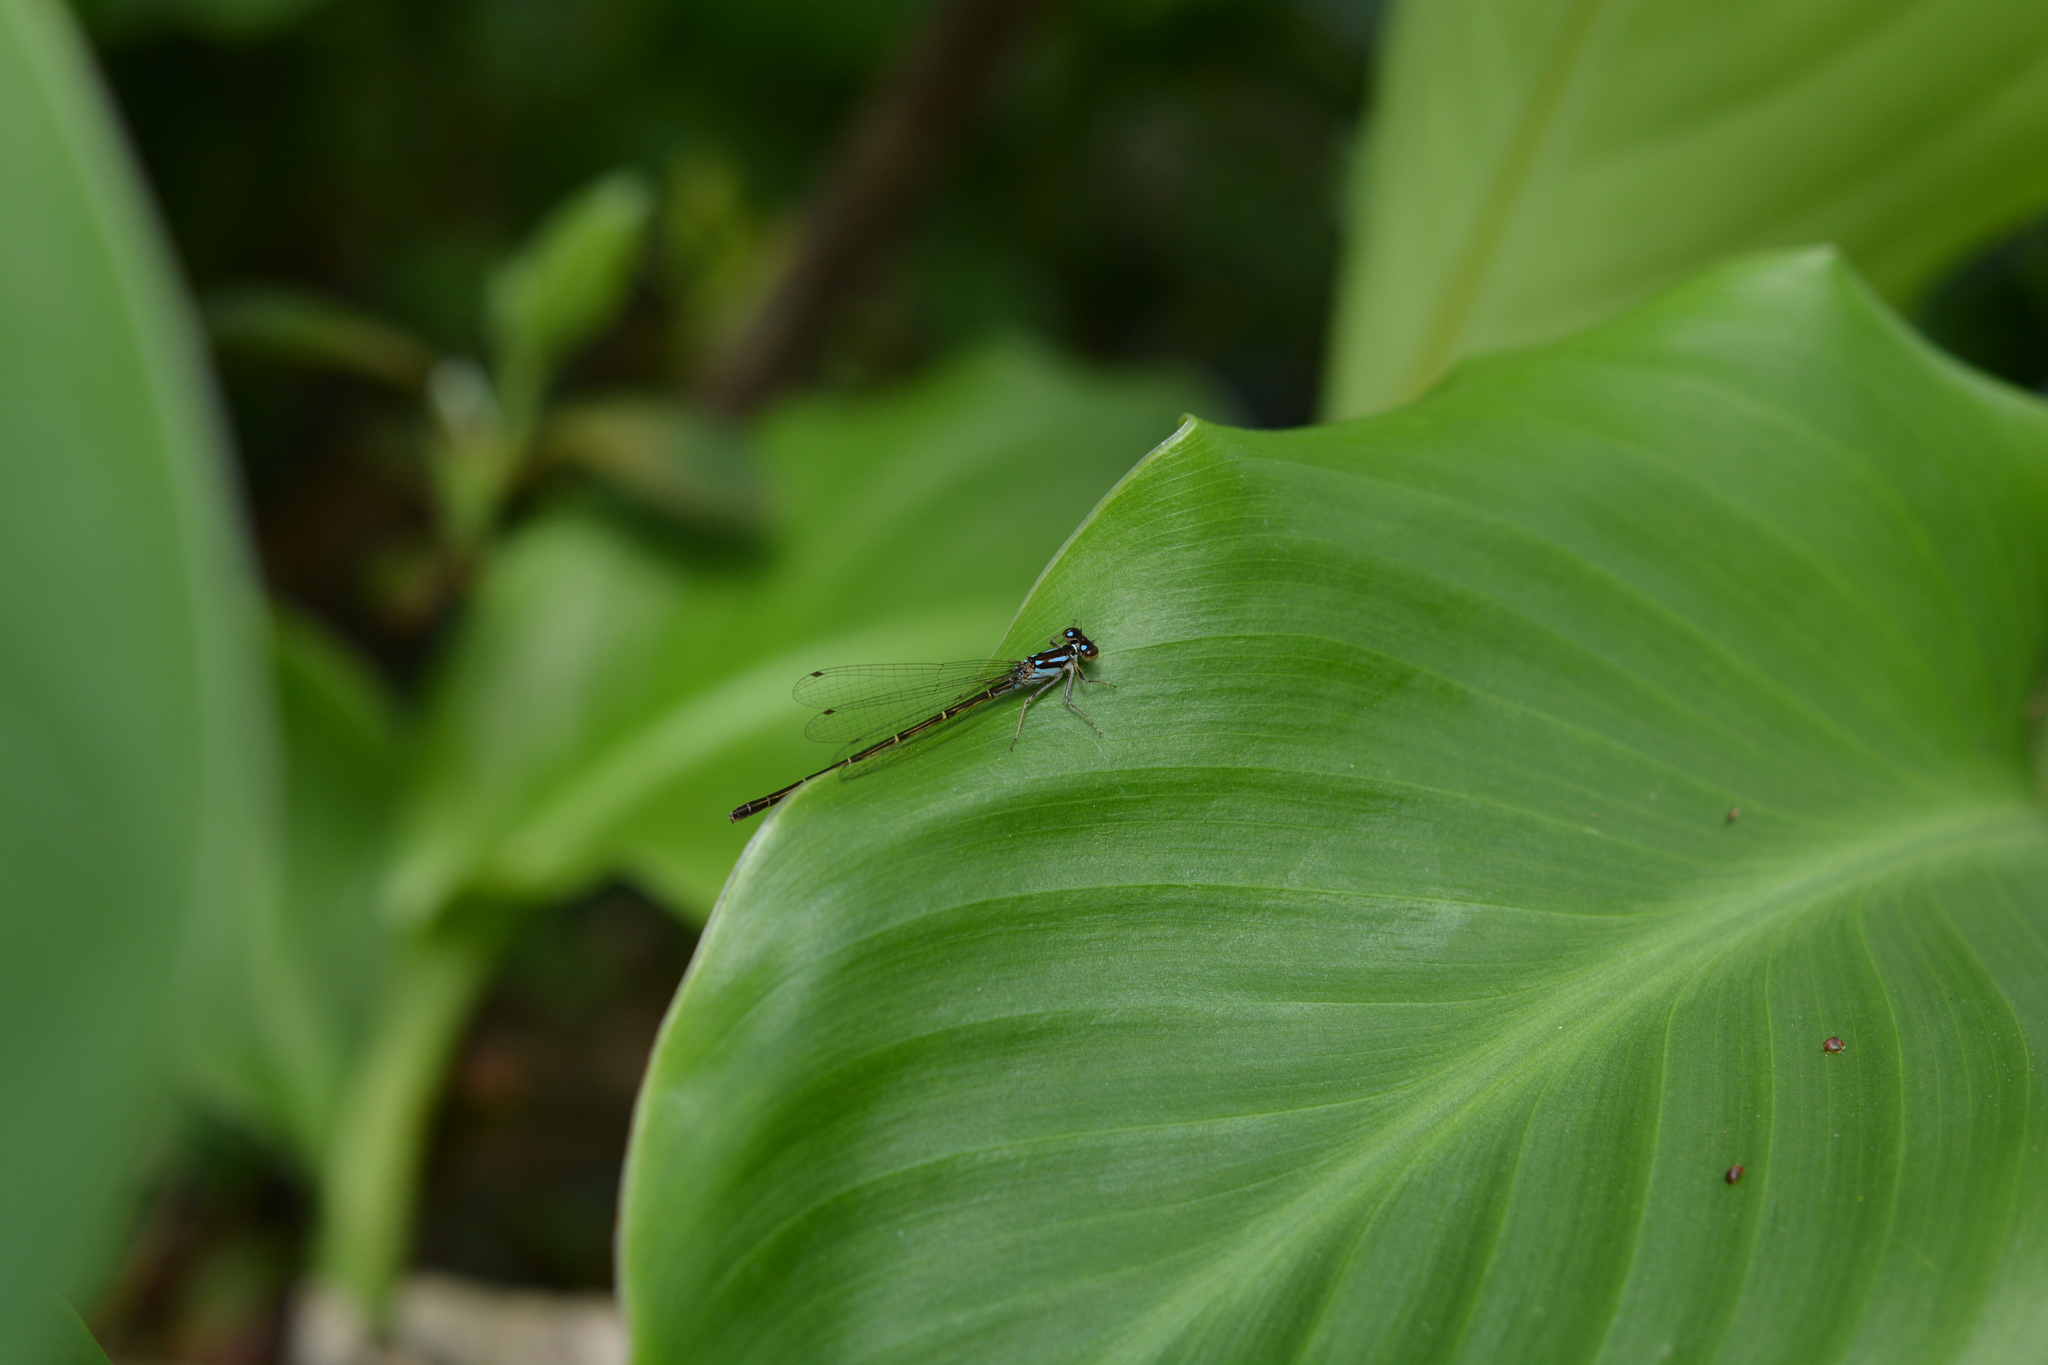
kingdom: Animalia
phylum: Arthropoda
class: Insecta
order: Odonata
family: Coenagrionidae
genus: Ischnura
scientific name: Ischnura posita
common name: Fragile forktail
